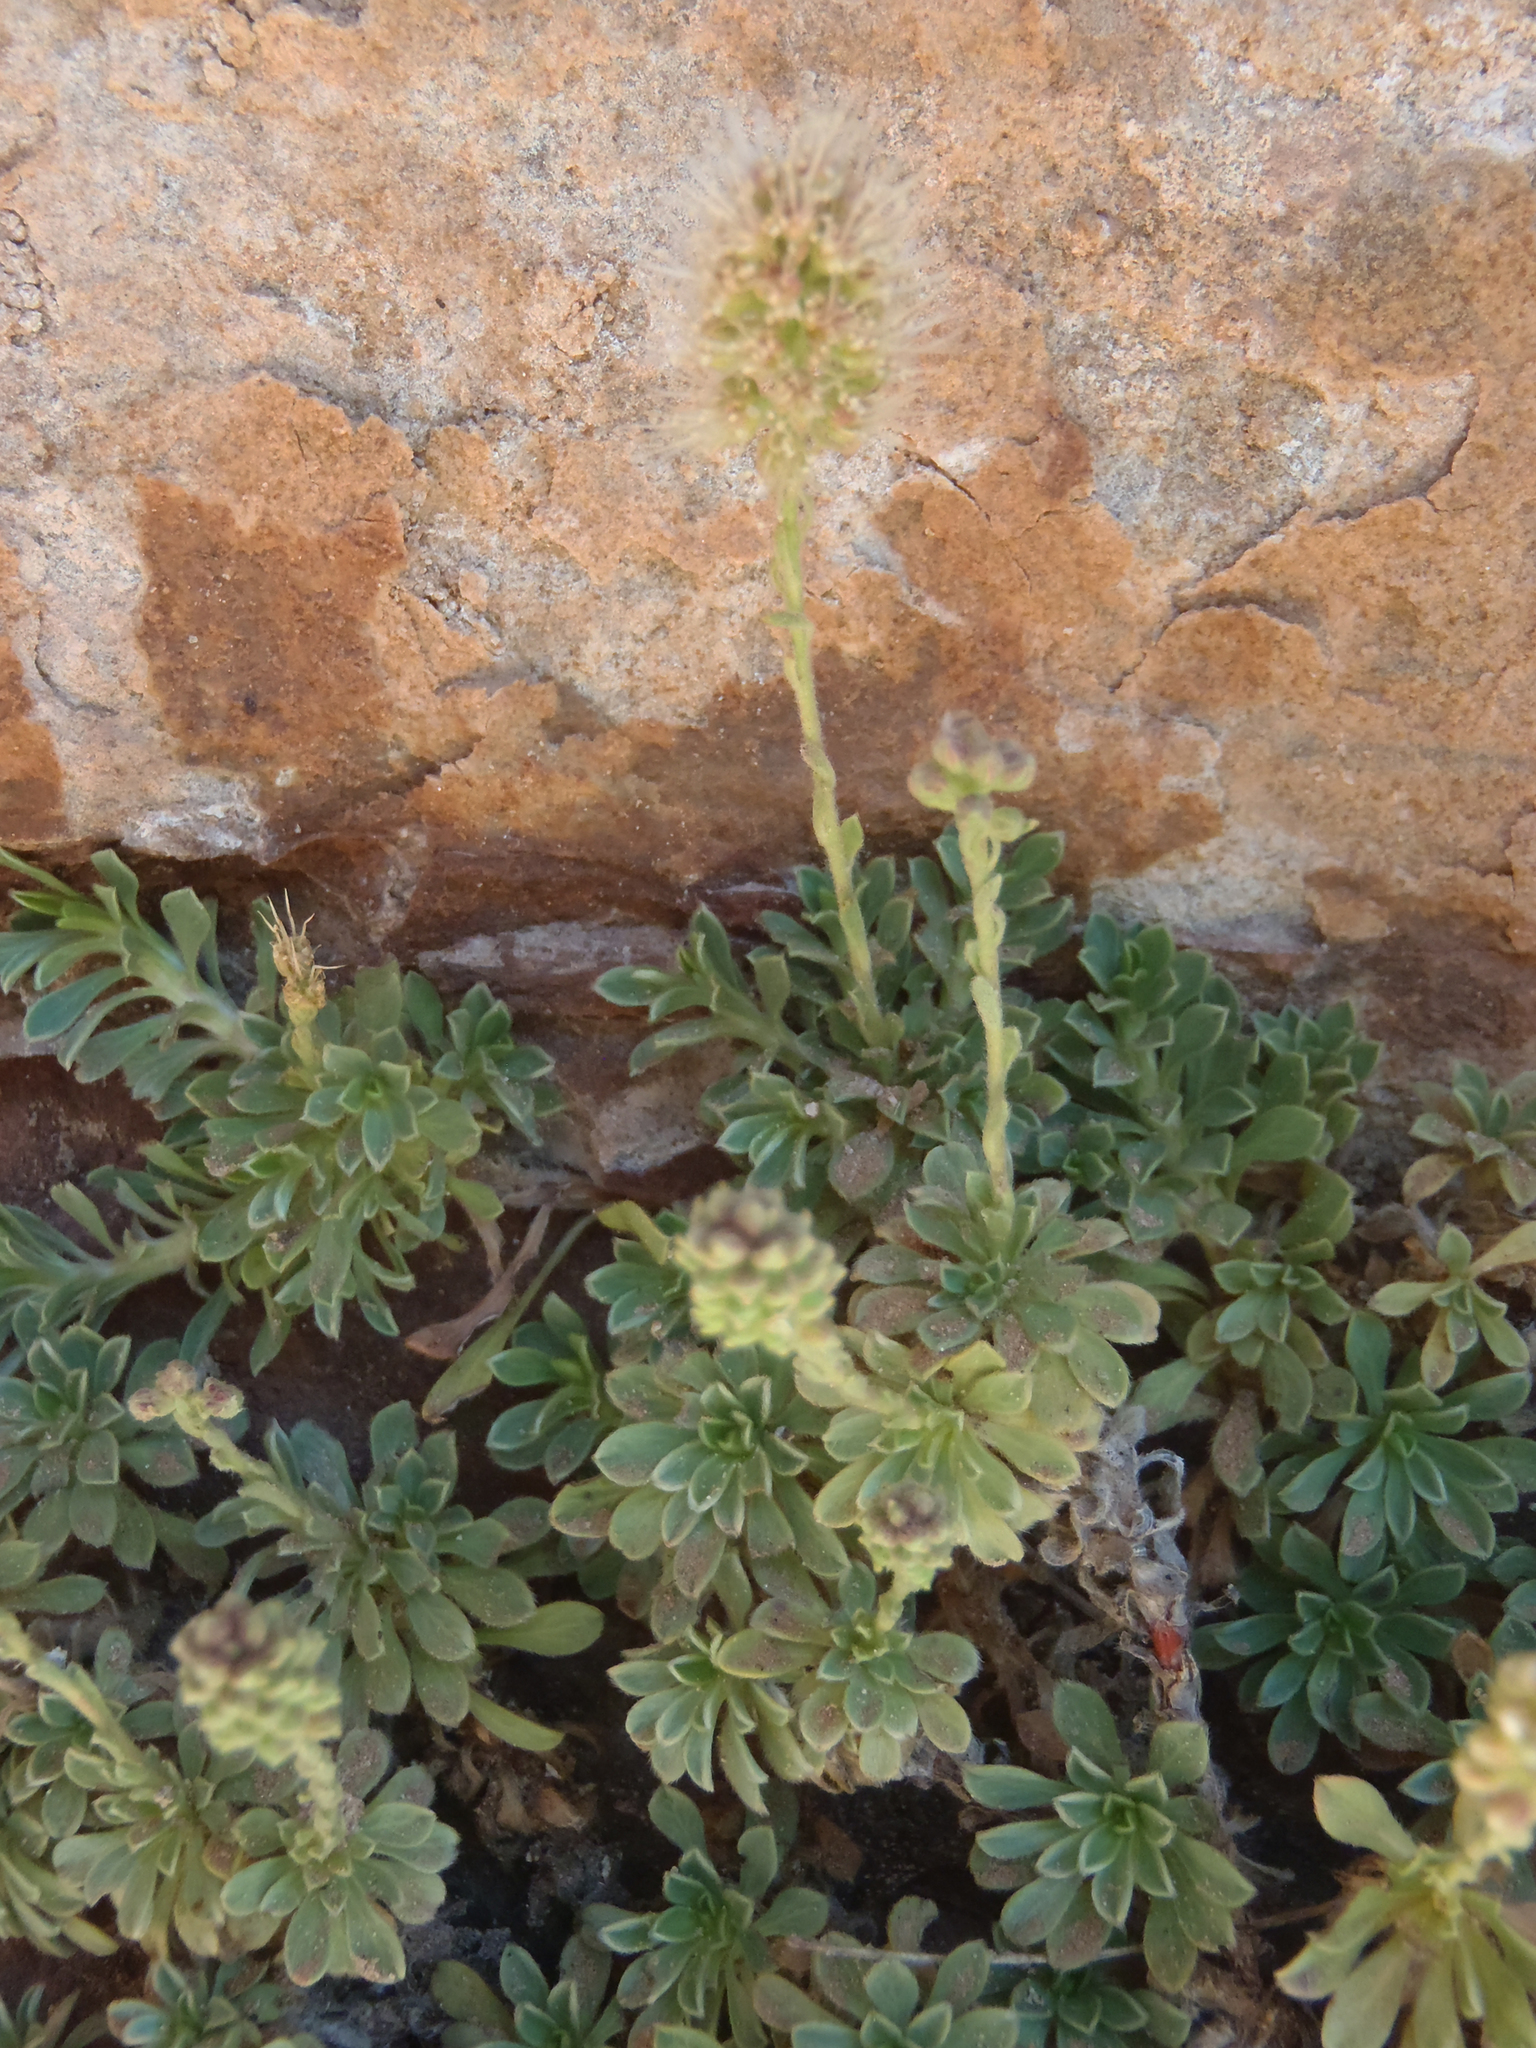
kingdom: Plantae
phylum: Tracheophyta
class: Magnoliopsida
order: Rosales
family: Rosaceae
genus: Petrophytum
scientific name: Petrophytum caespitosum
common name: Mat rockspirea
